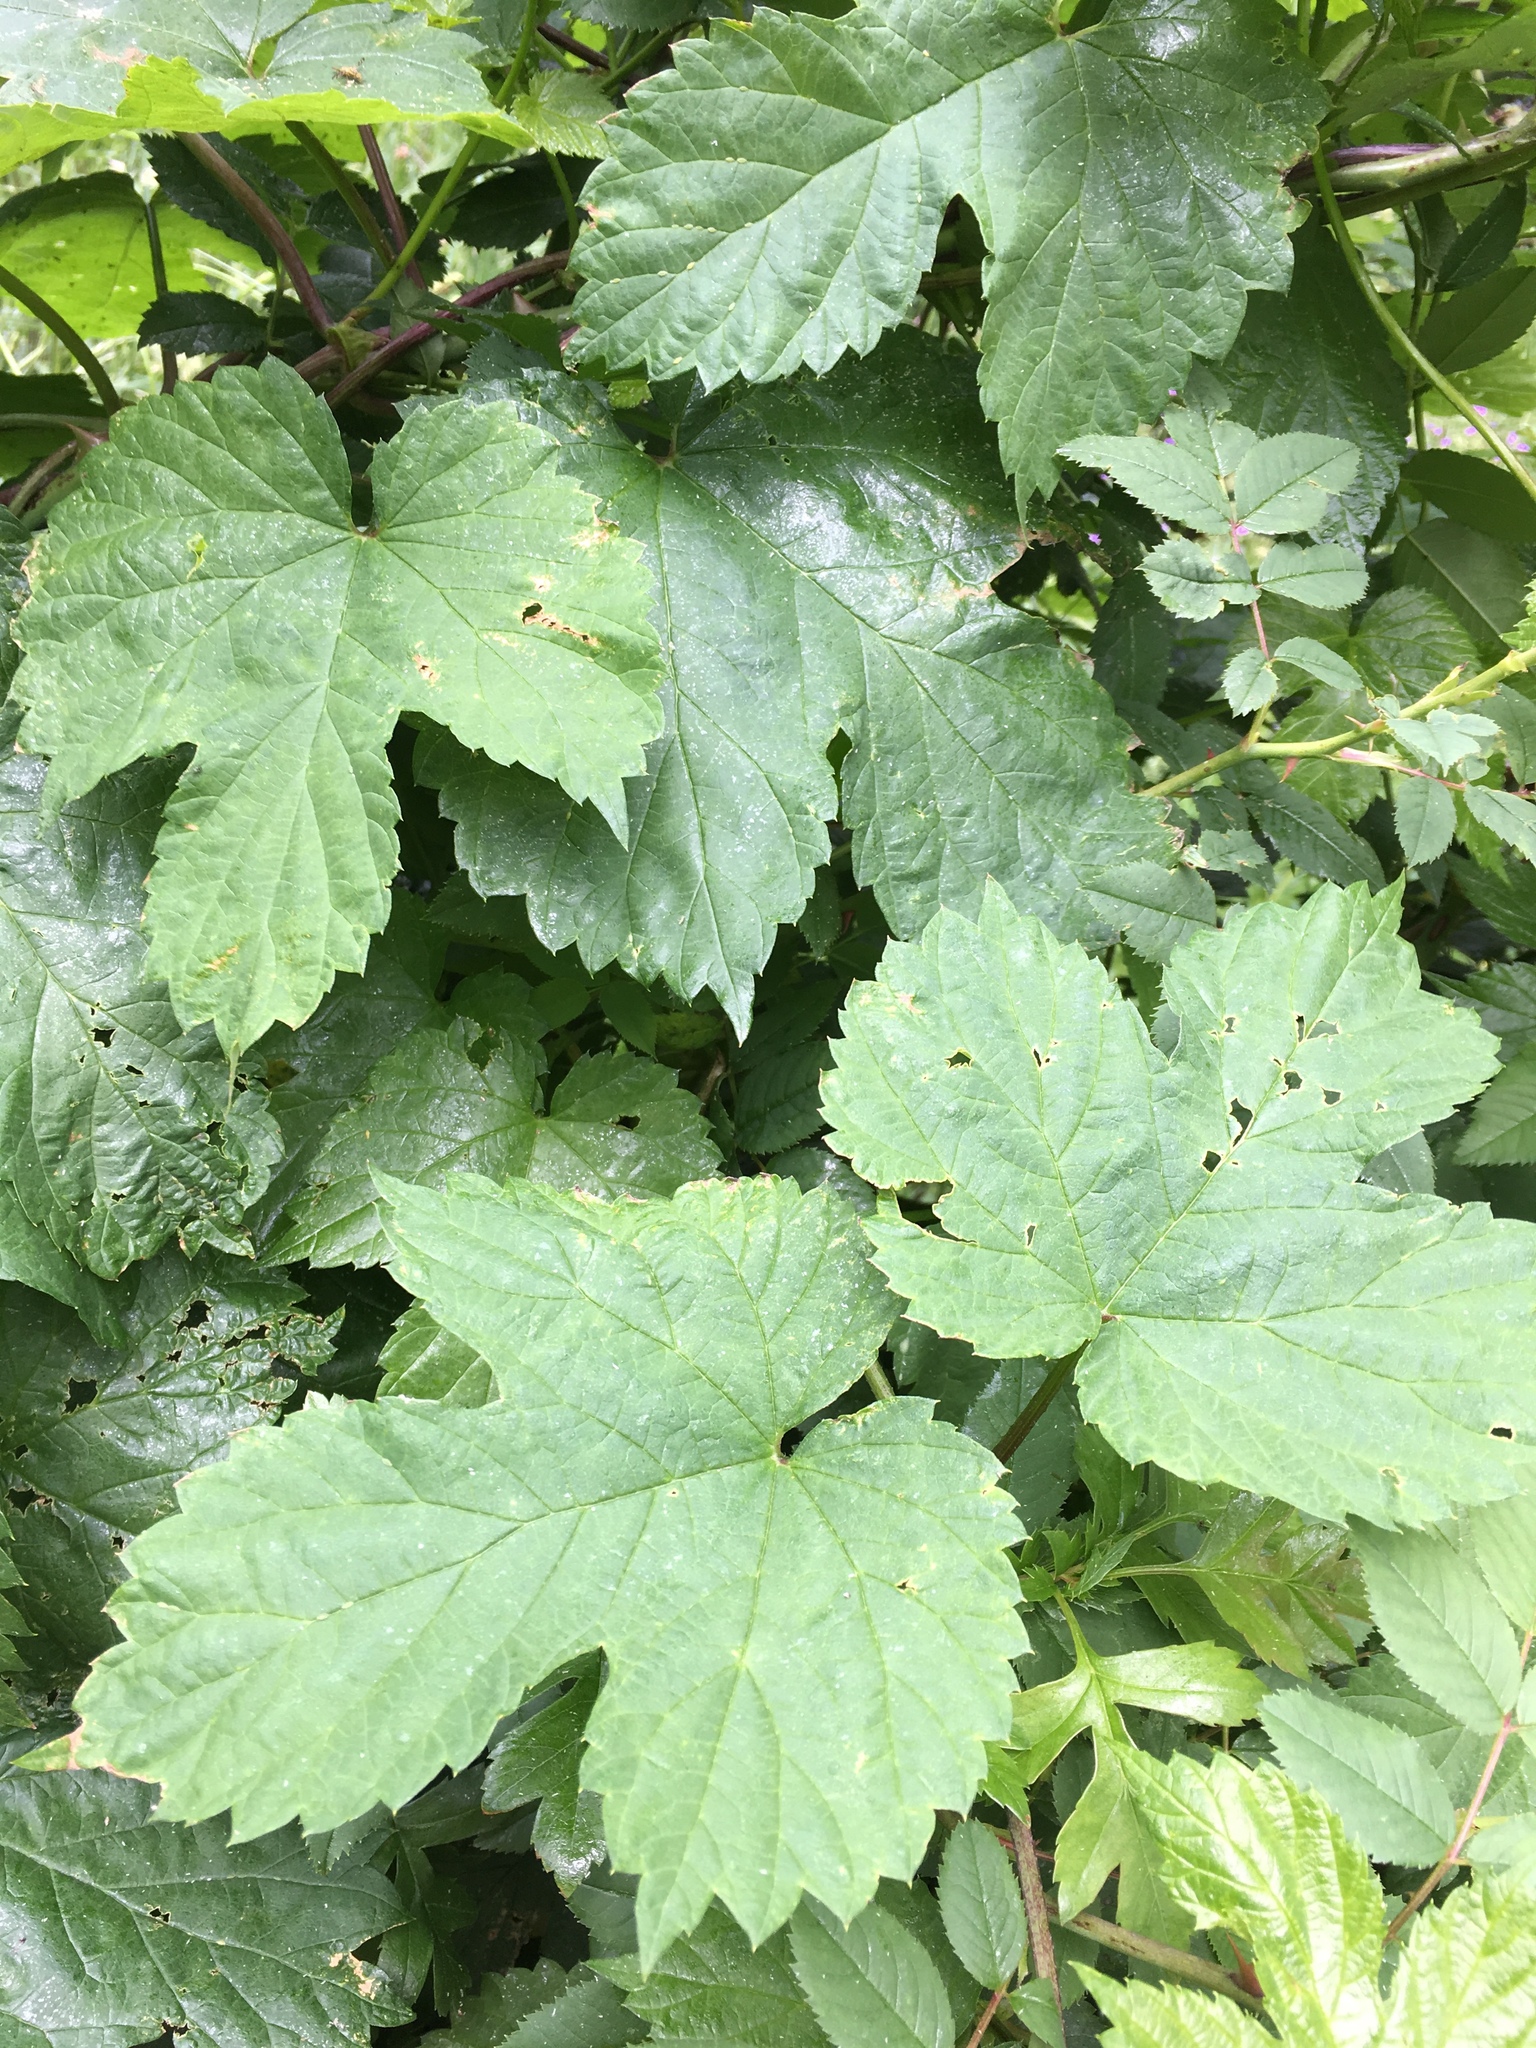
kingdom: Plantae
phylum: Tracheophyta
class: Magnoliopsida
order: Rosales
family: Cannabaceae
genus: Humulus
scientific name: Humulus lupulus
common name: Hop
